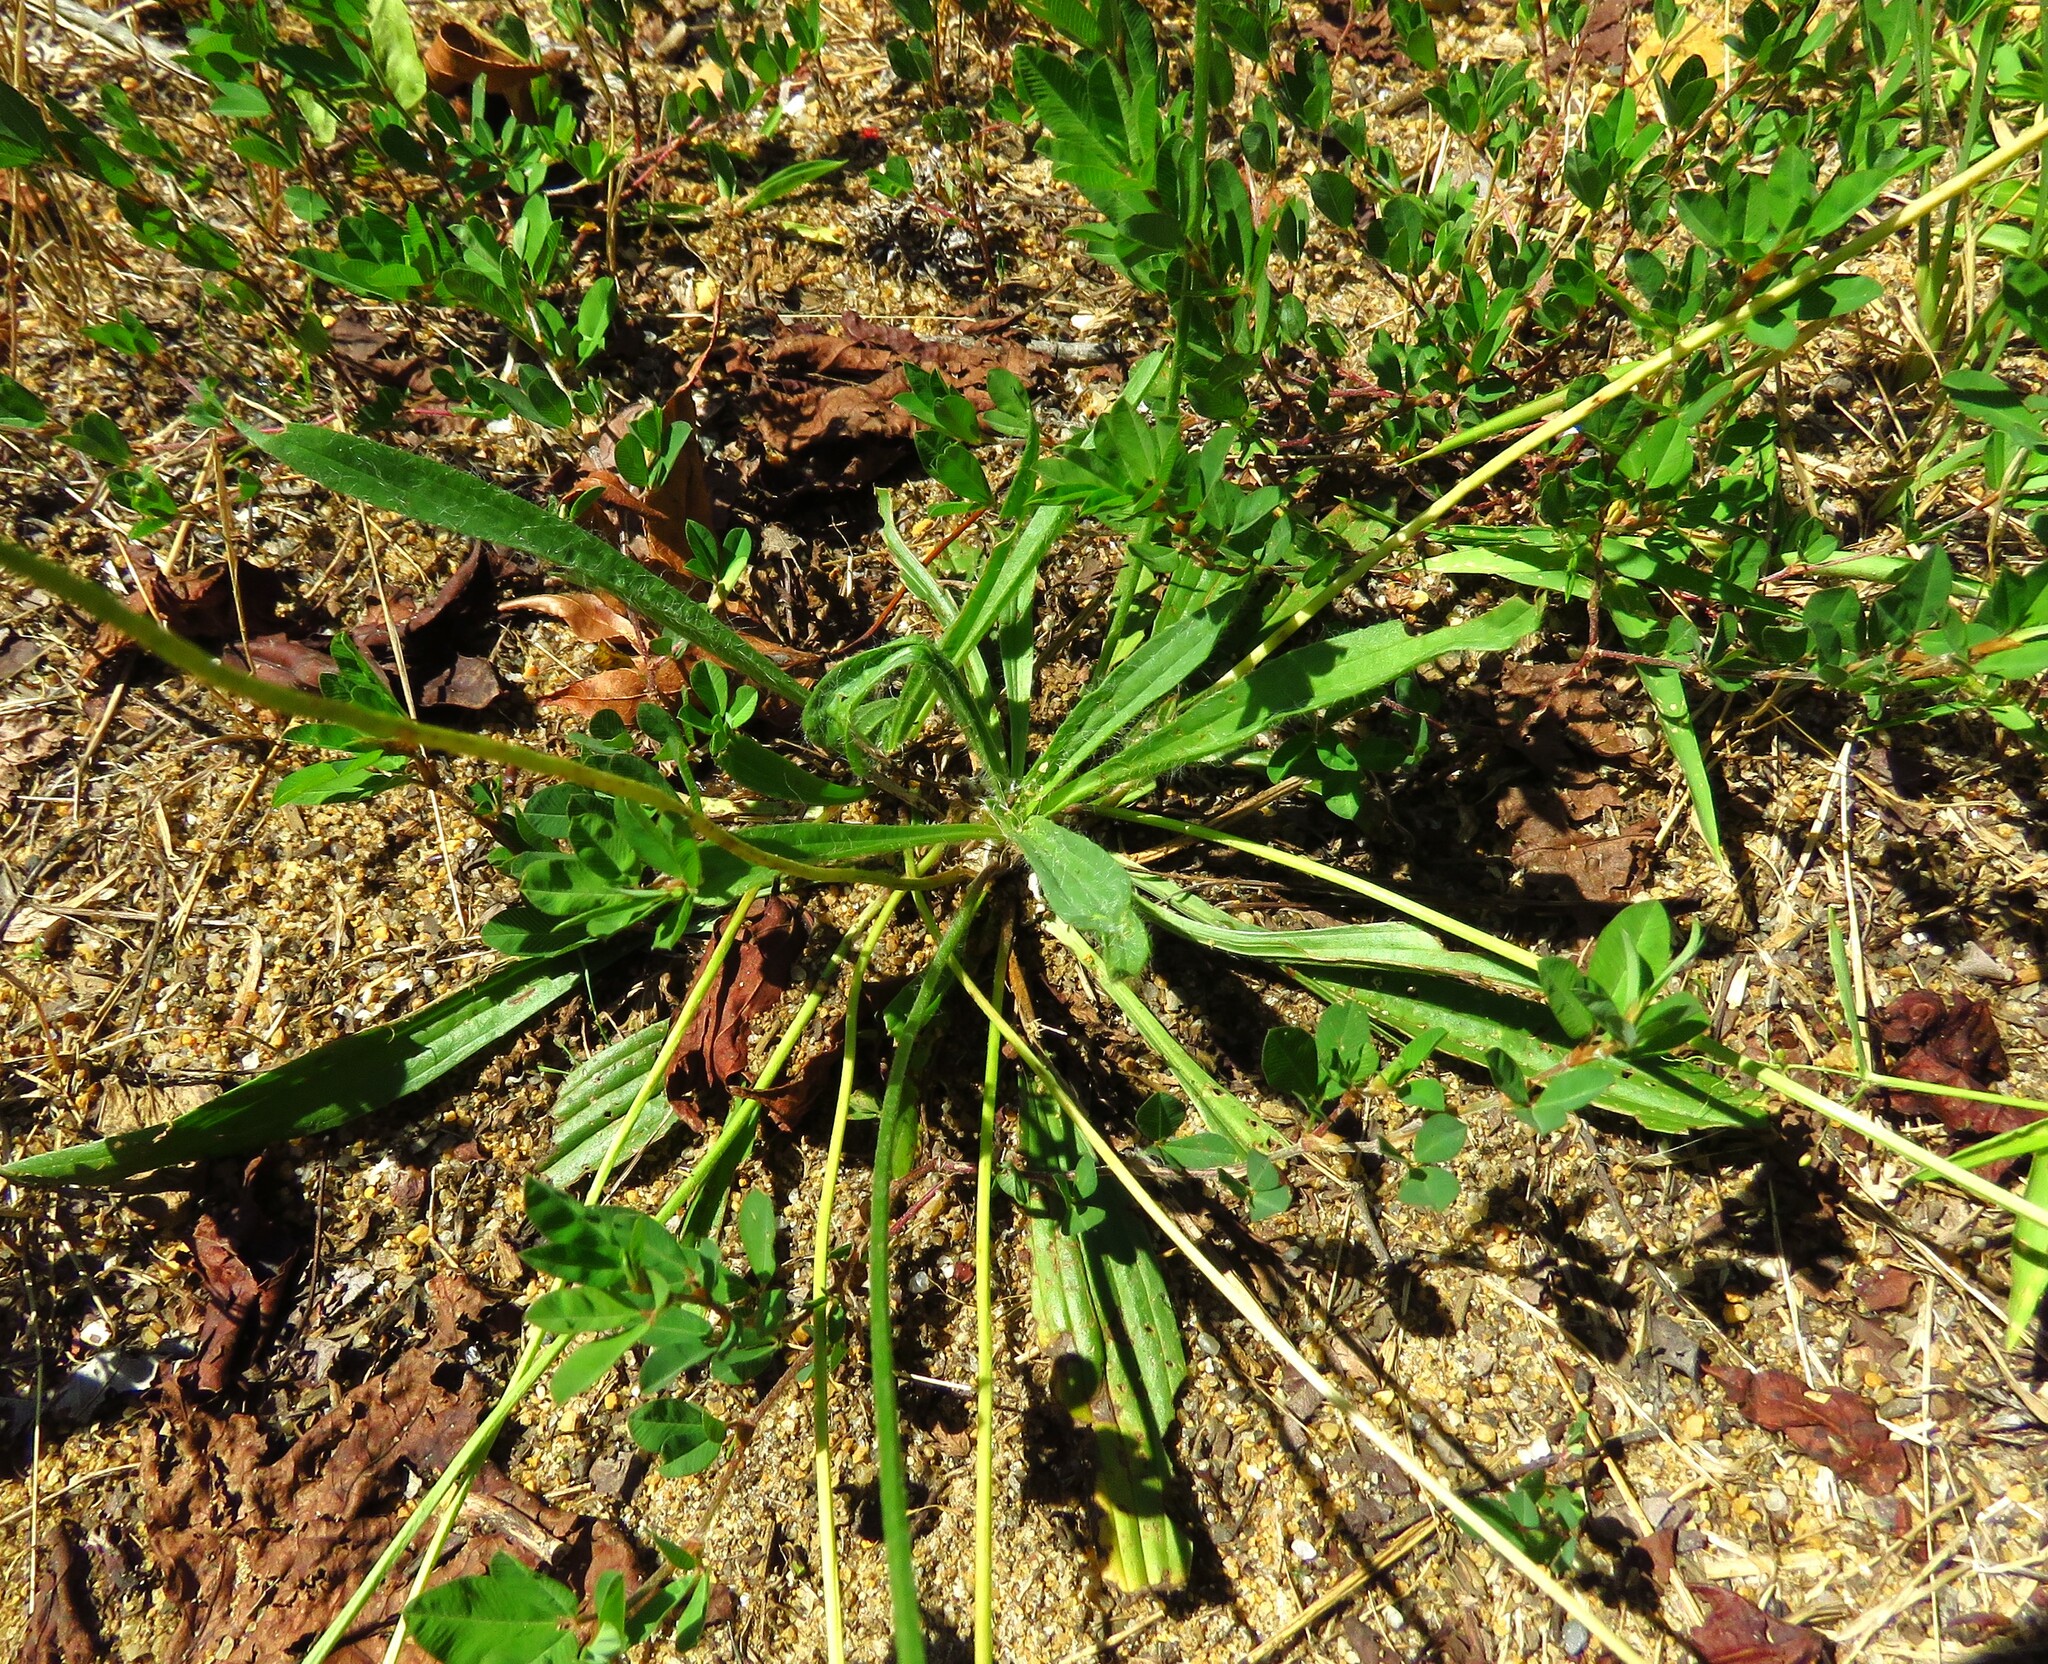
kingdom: Plantae
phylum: Tracheophyta
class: Magnoliopsida
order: Lamiales
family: Plantaginaceae
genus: Plantago
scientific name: Plantago lanceolata
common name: Ribwort plantain
